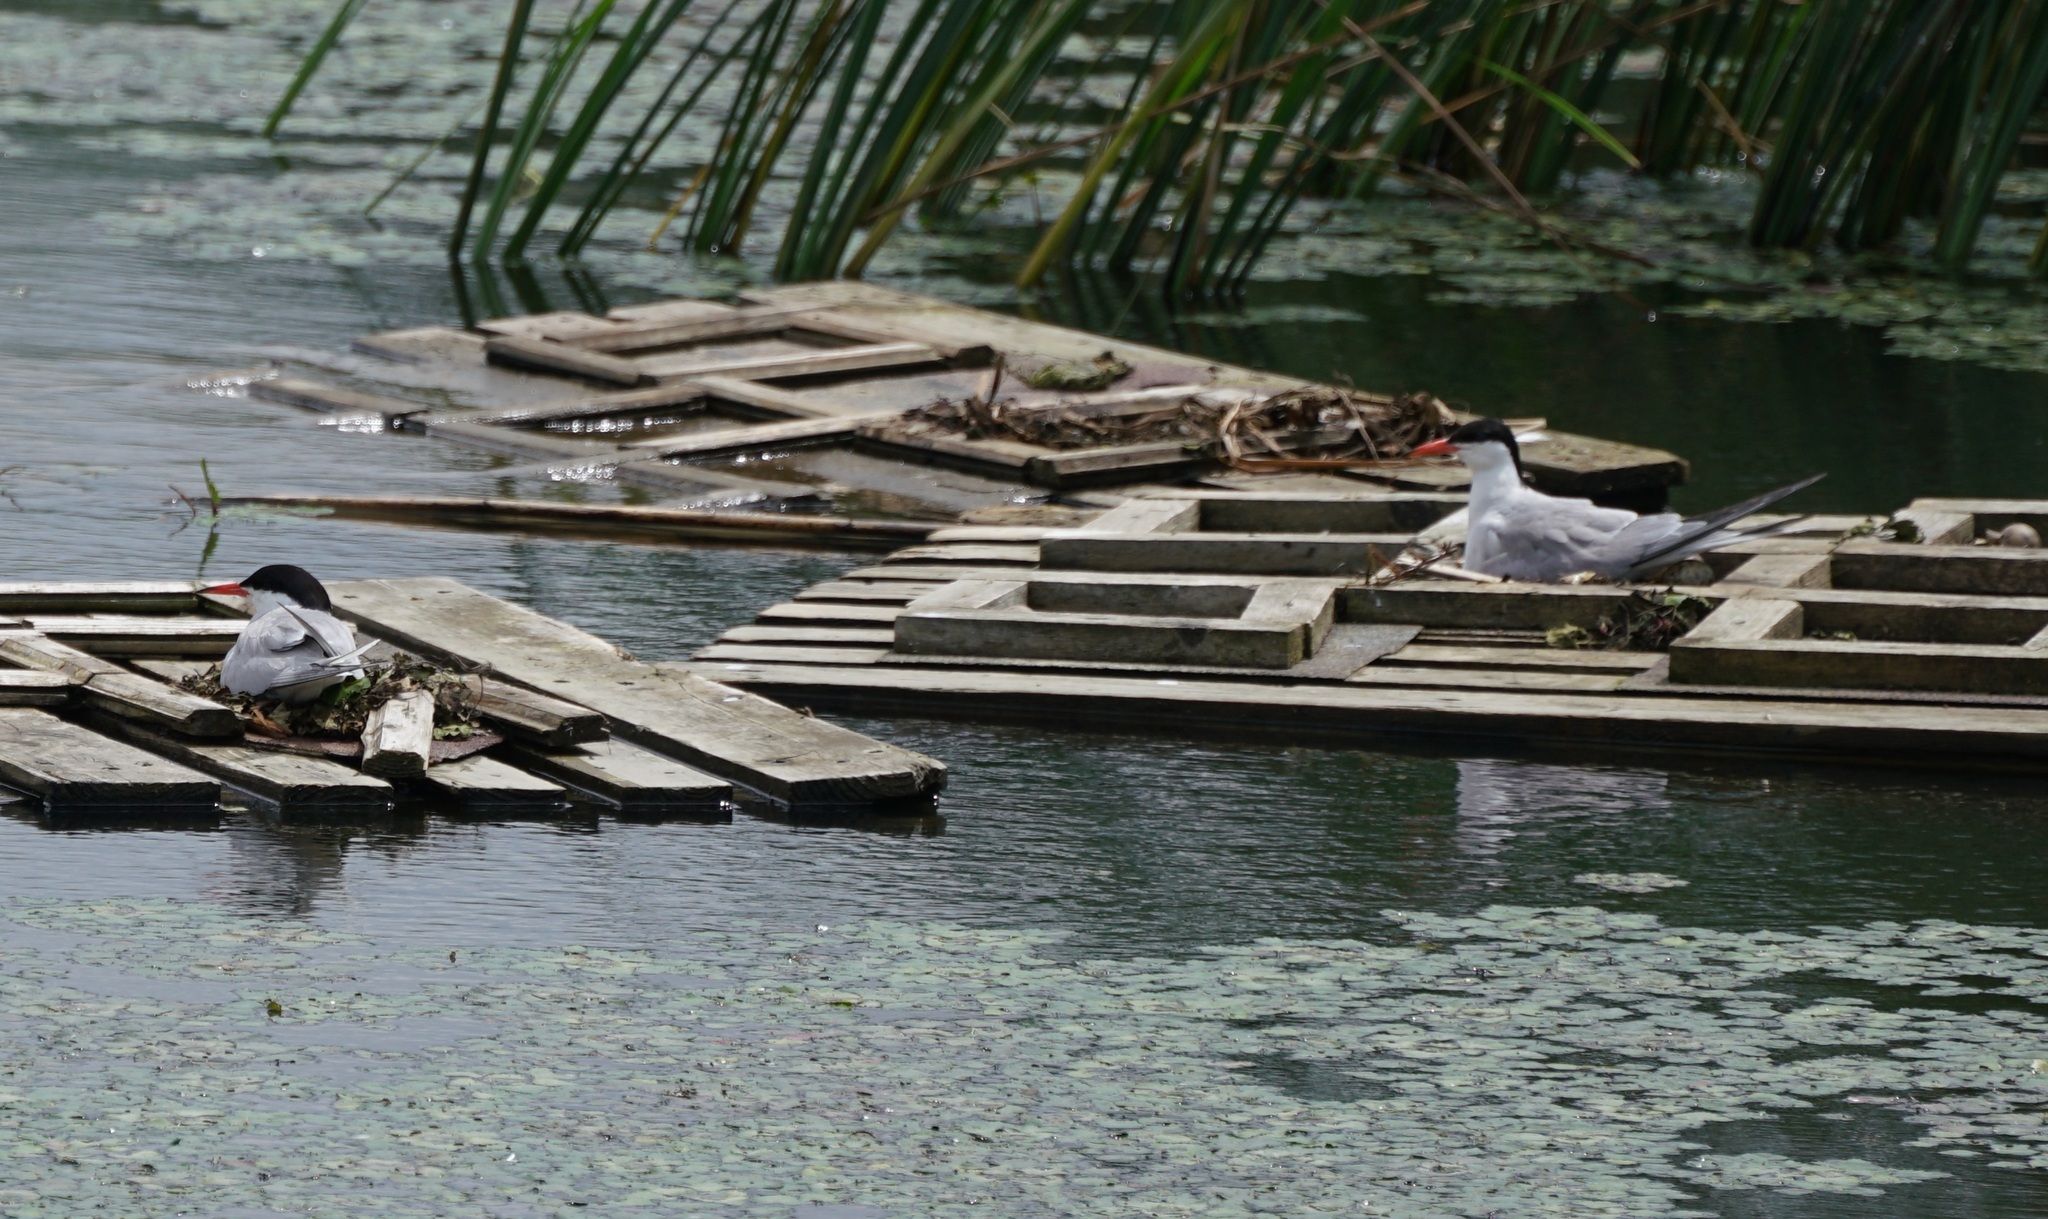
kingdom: Animalia
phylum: Chordata
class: Aves
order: Charadriiformes
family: Laridae
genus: Sterna
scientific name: Sterna hirundo
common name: Common tern
